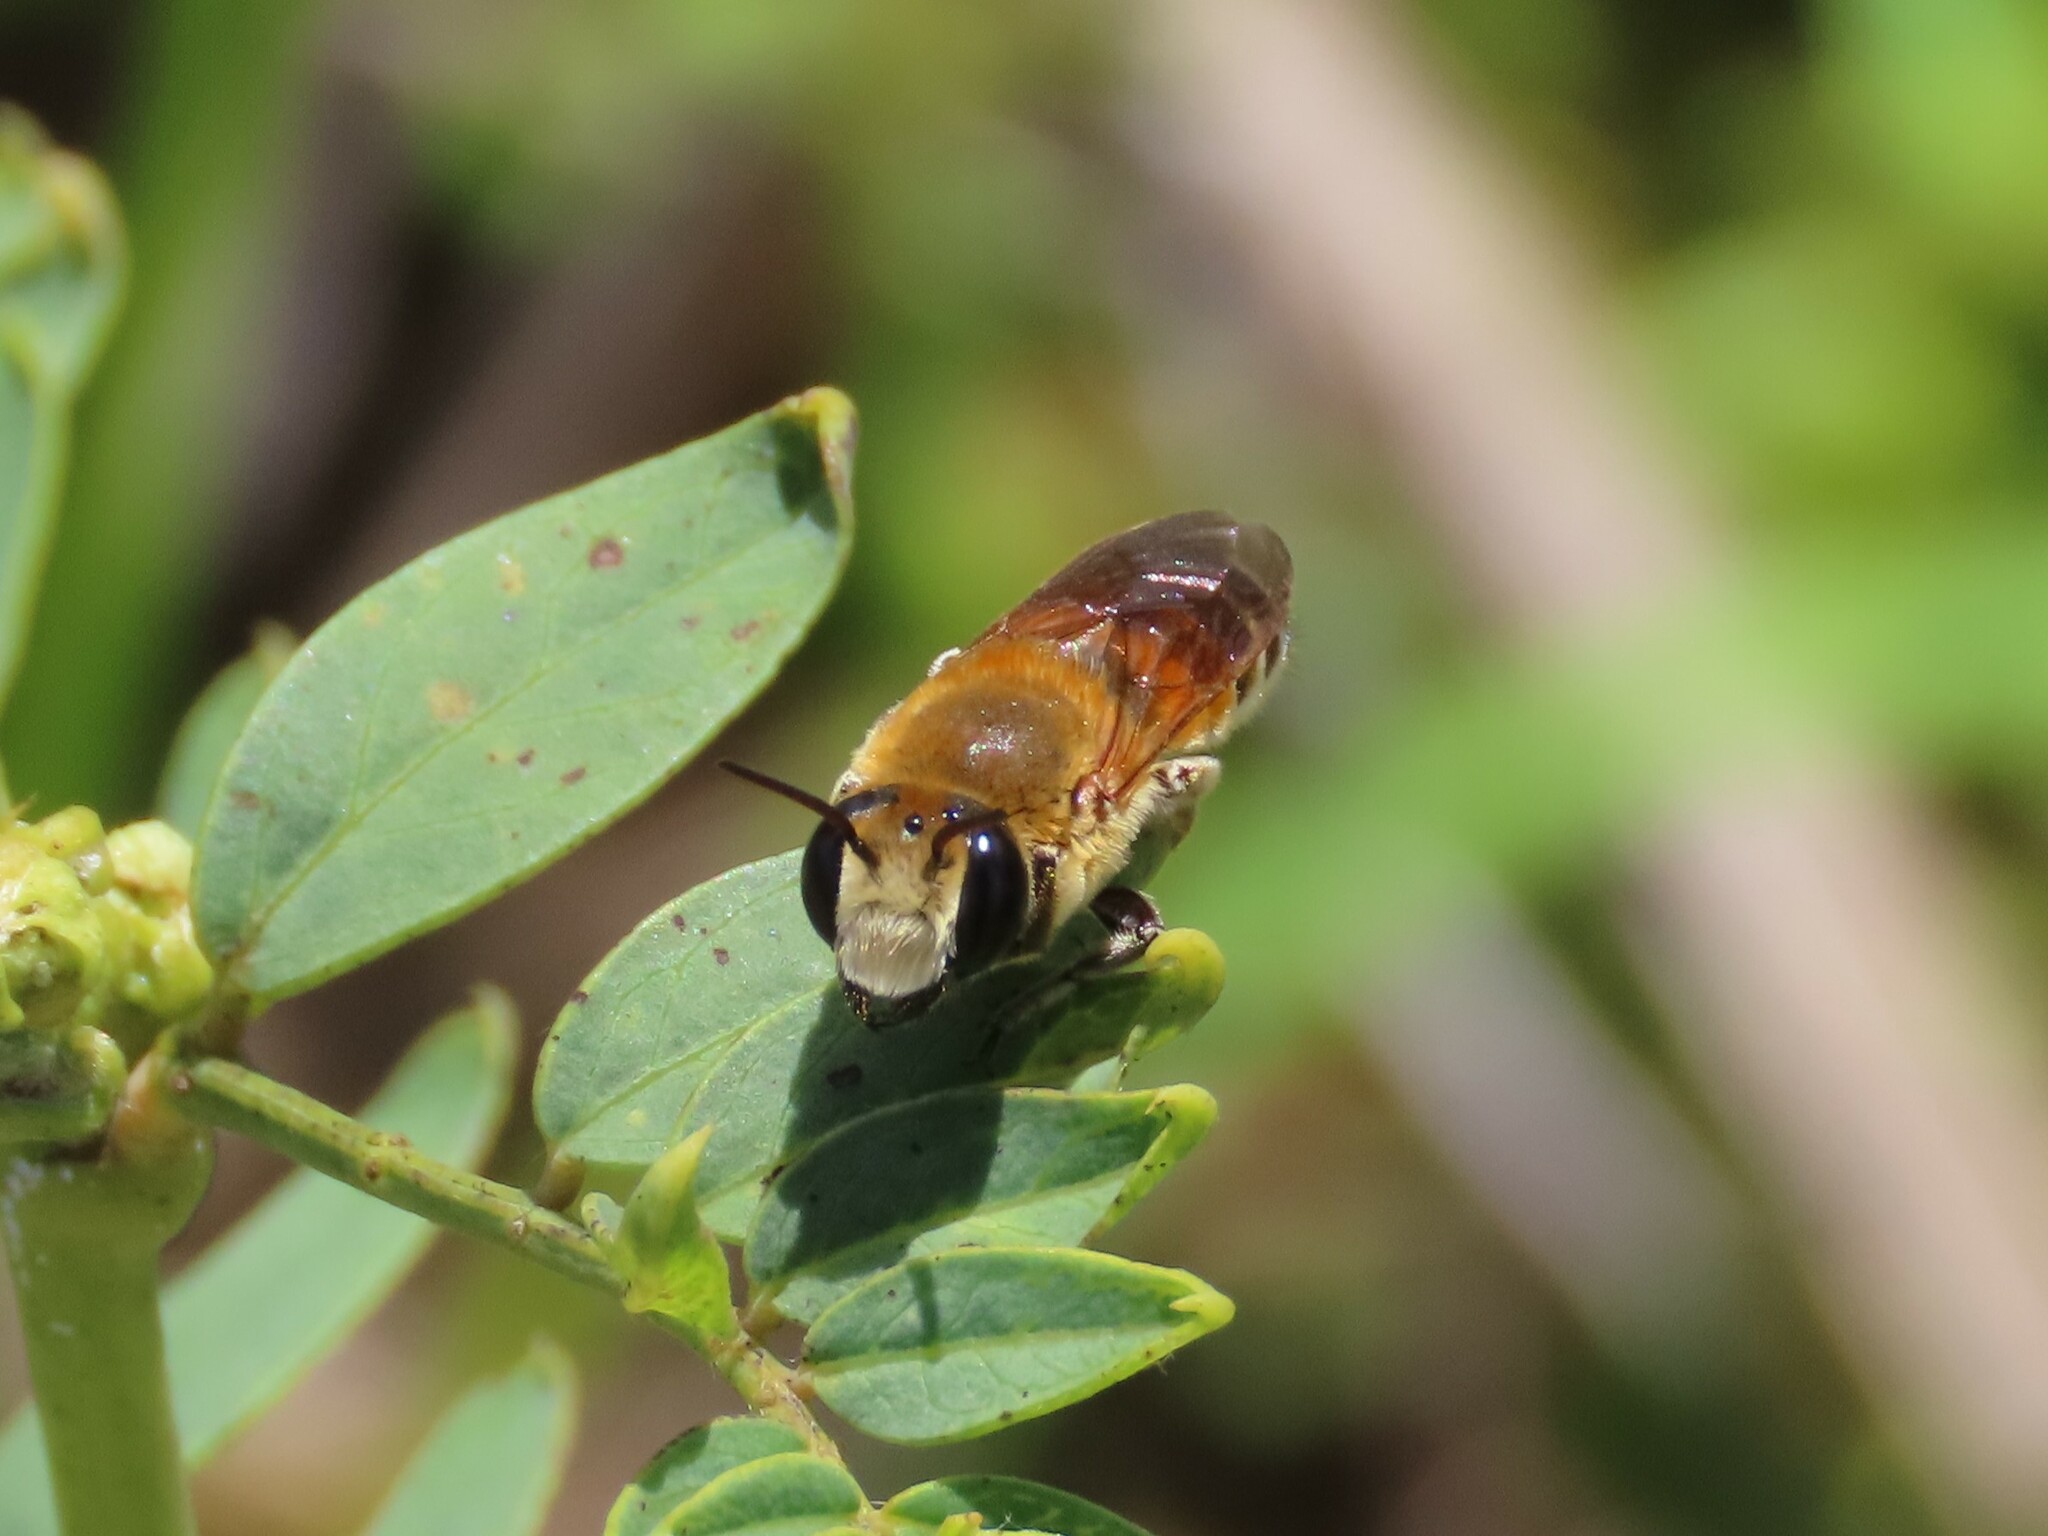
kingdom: Animalia
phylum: Arthropoda
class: Insecta
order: Hymenoptera
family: Megachilidae
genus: Megachile
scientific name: Megachile lanata
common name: Wooly wall bee
